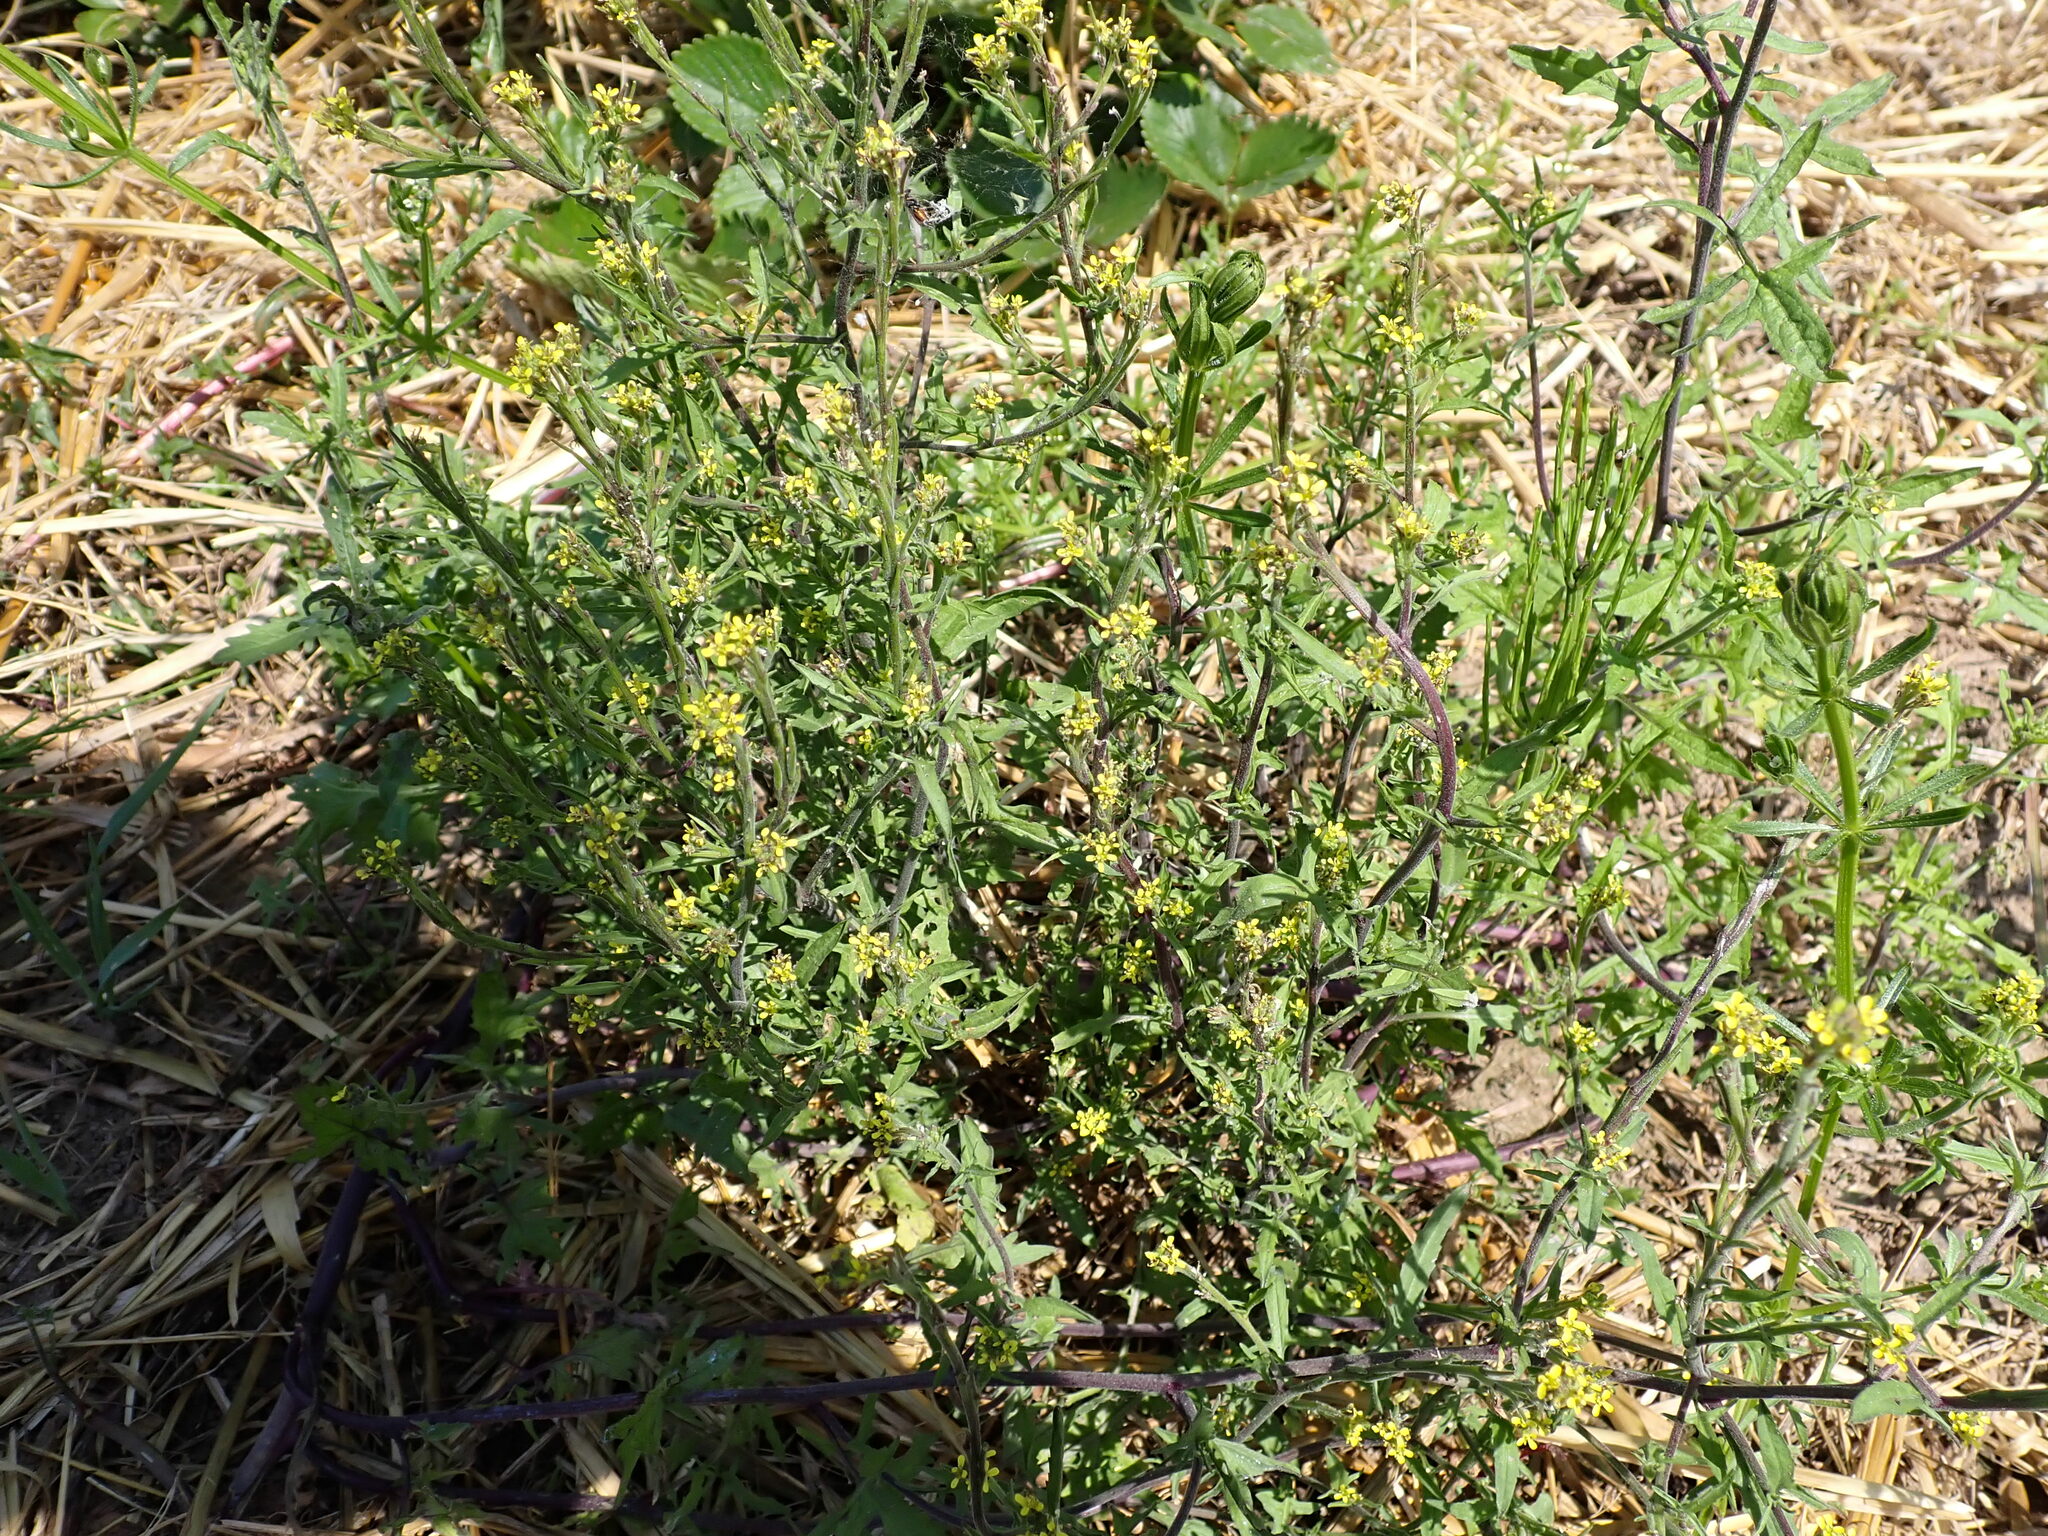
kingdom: Plantae
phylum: Tracheophyta
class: Magnoliopsida
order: Brassicales
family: Brassicaceae
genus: Sisymbrium
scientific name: Sisymbrium officinale
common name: Hedge mustard
